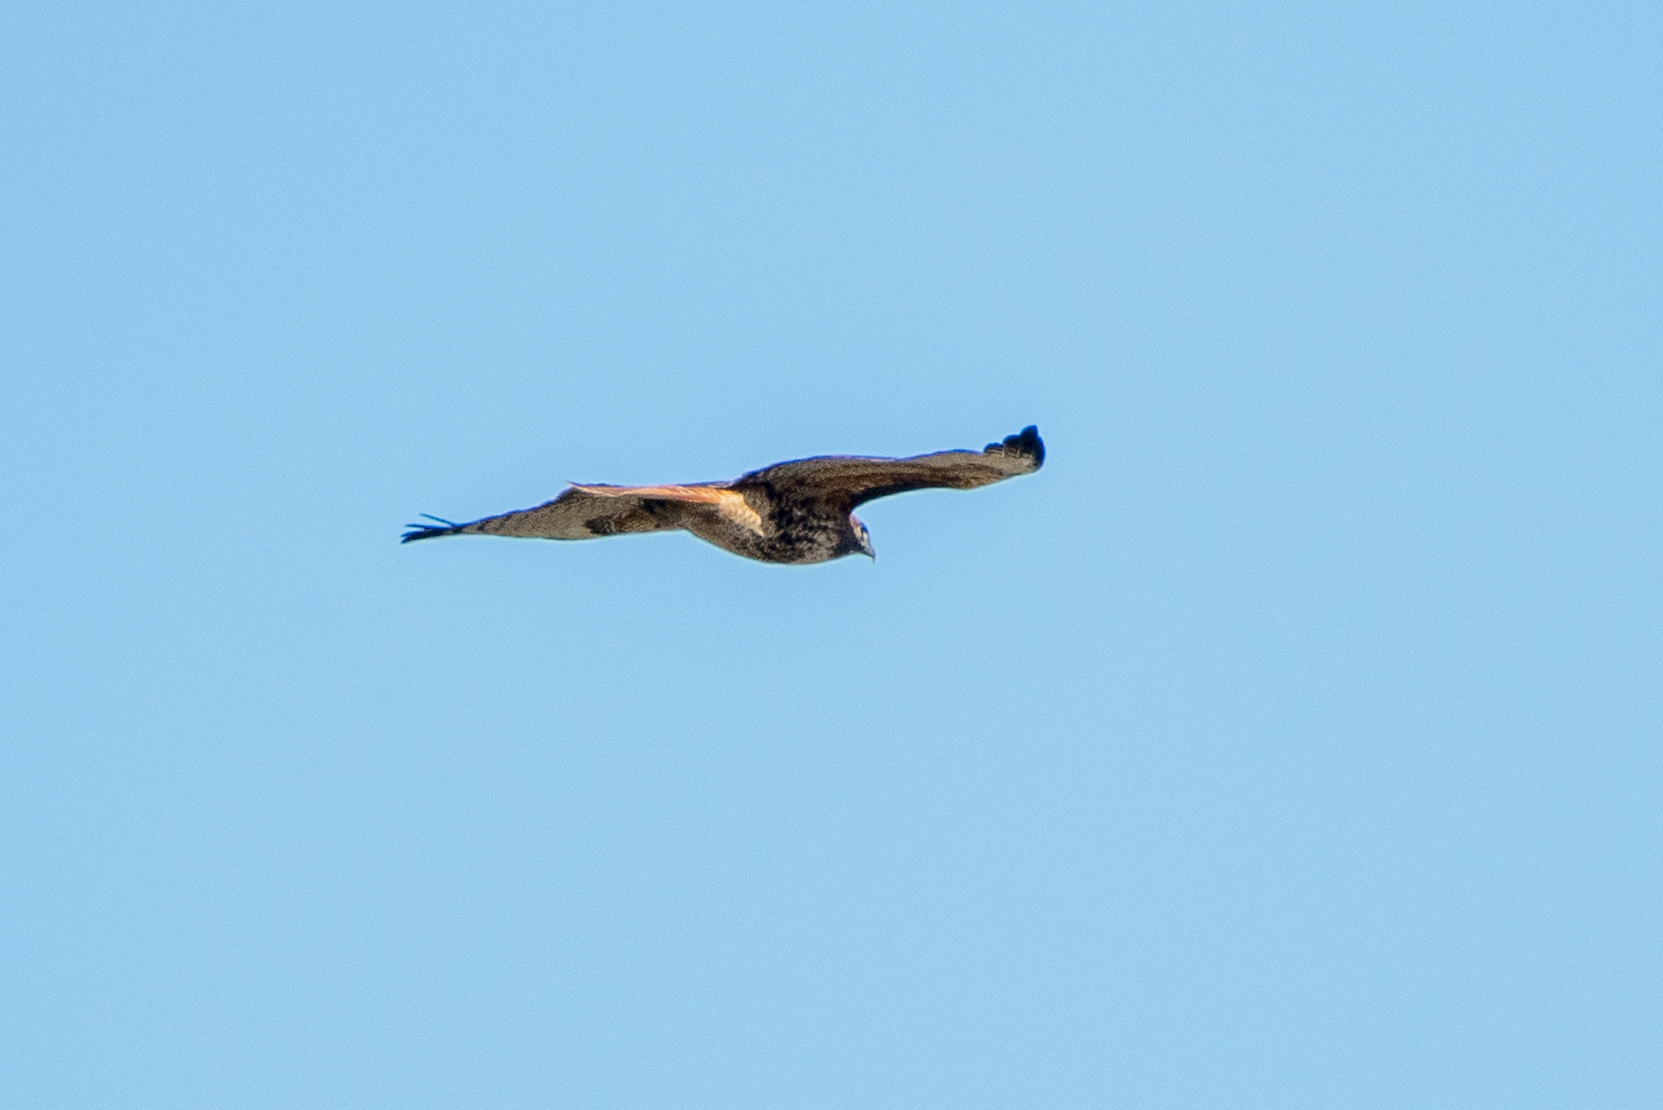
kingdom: Animalia
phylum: Chordata
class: Aves
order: Accipitriformes
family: Accipitridae
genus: Buteo
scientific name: Buteo jamaicensis
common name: Red-tailed hawk
